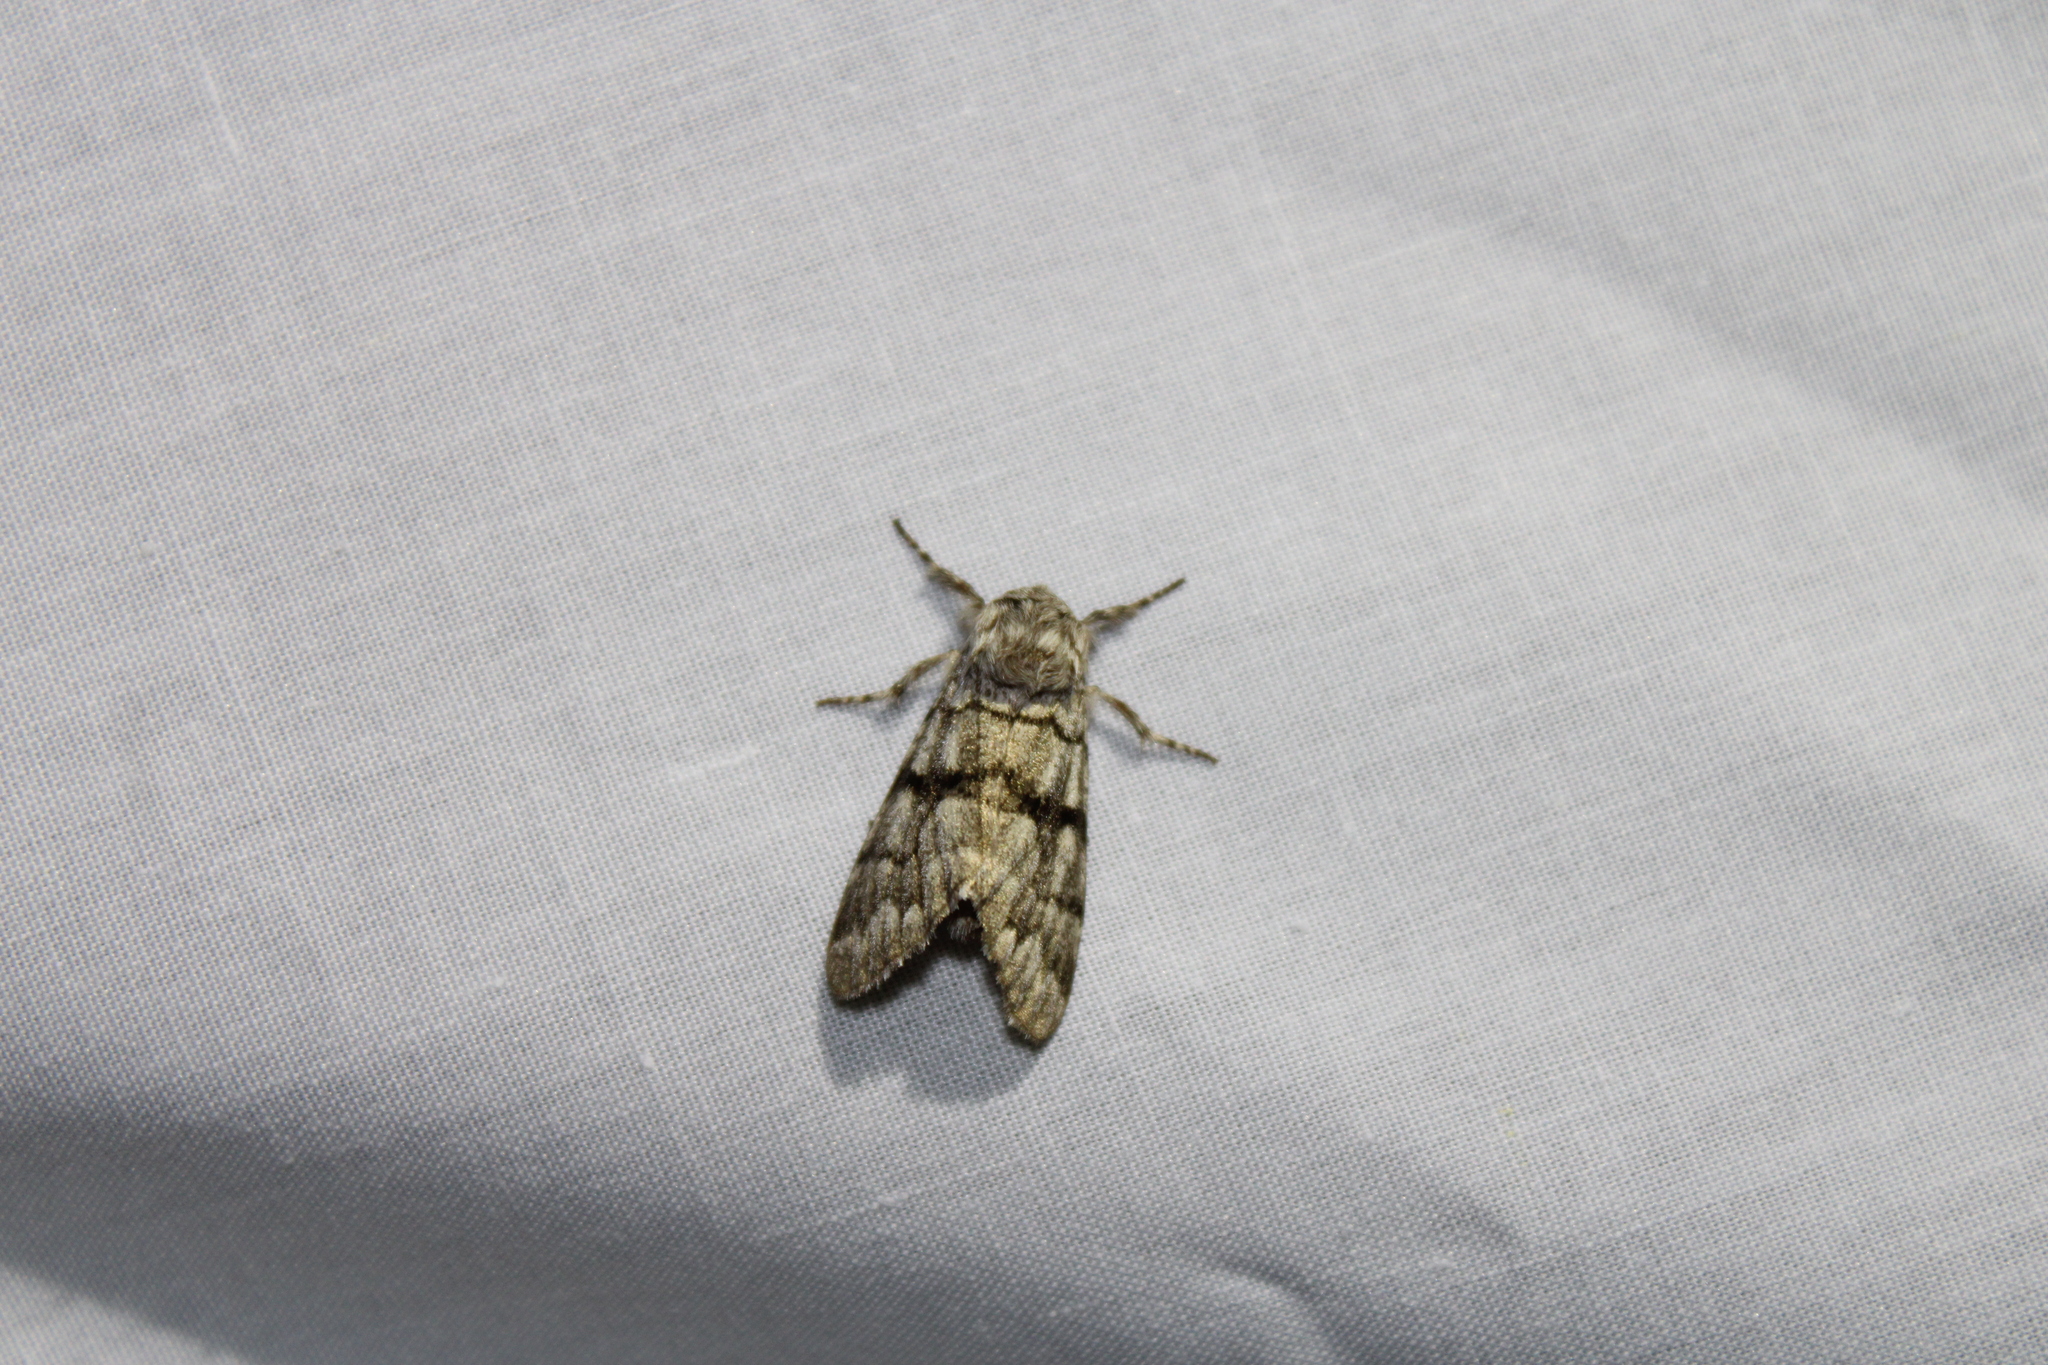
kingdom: Animalia
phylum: Arthropoda
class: Insecta
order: Lepidoptera
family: Noctuidae
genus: Panthea
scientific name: Panthea furcilla
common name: Eastern panthea moth
